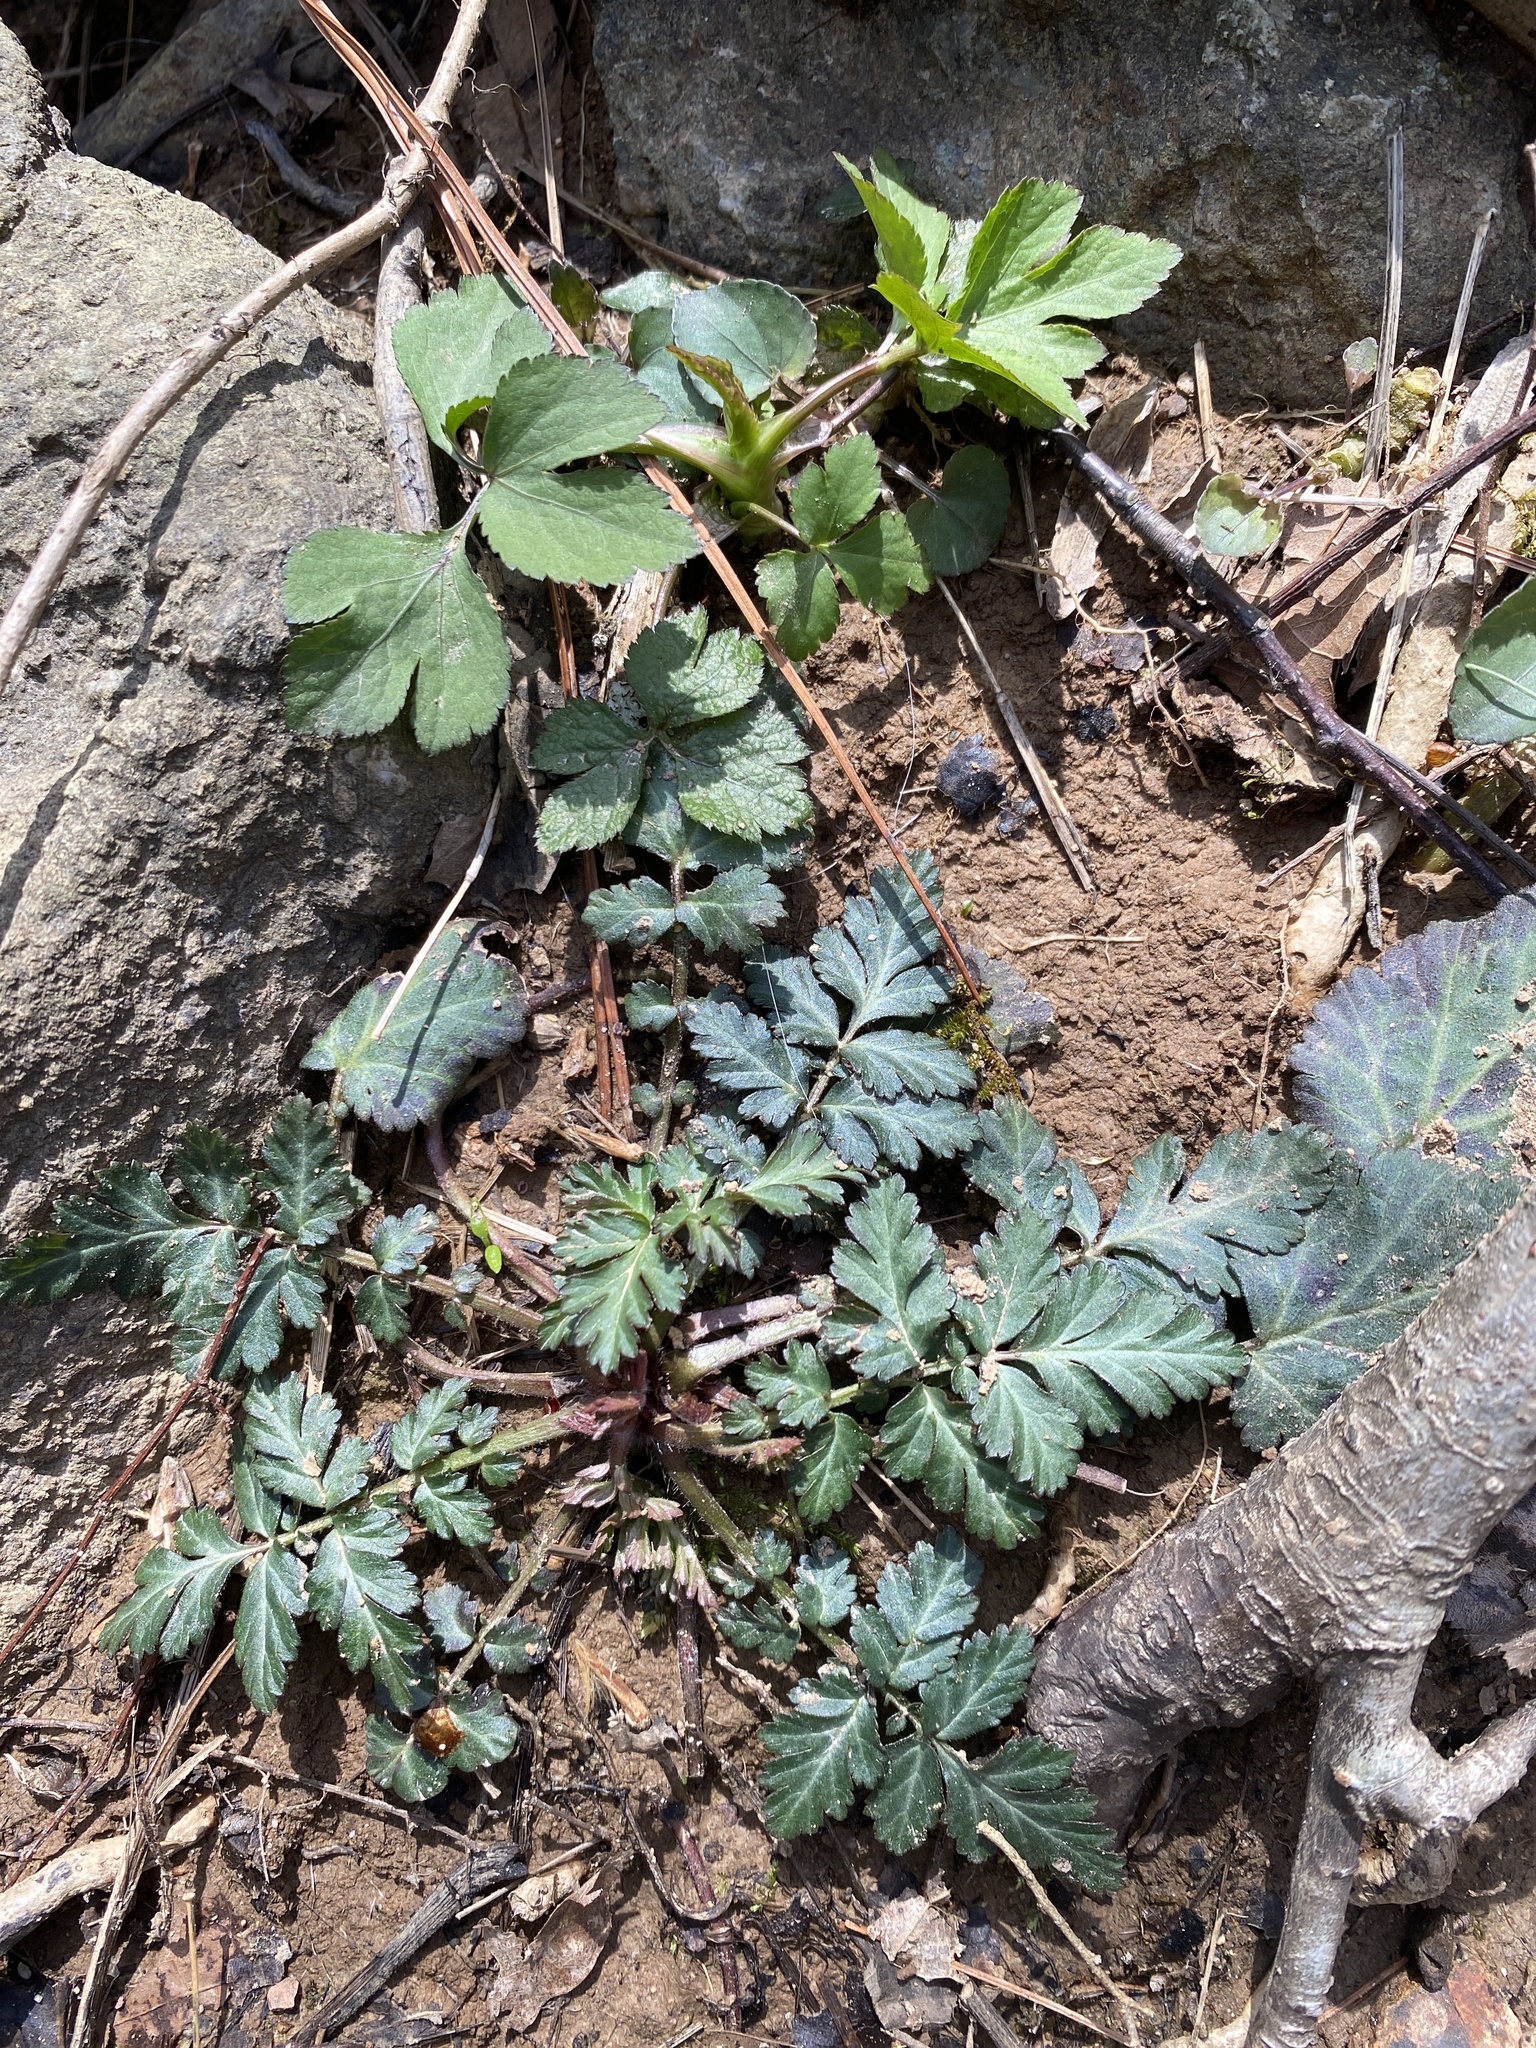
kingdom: Plantae
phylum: Tracheophyta
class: Magnoliopsida
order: Rosales
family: Rosaceae
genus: Geum
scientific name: Geum canadense
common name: White avens
